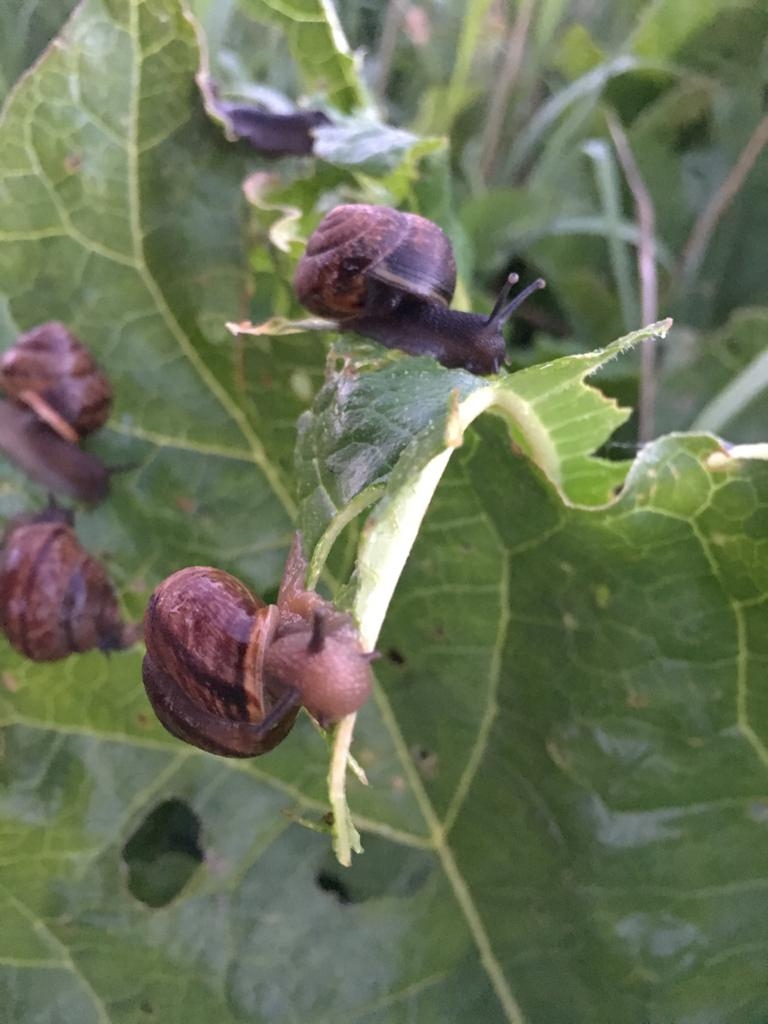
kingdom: Animalia
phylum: Mollusca
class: Gastropoda
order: Stylommatophora
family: Helicidae
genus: Arianta
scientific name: Arianta arbustorum
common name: Copse snail
